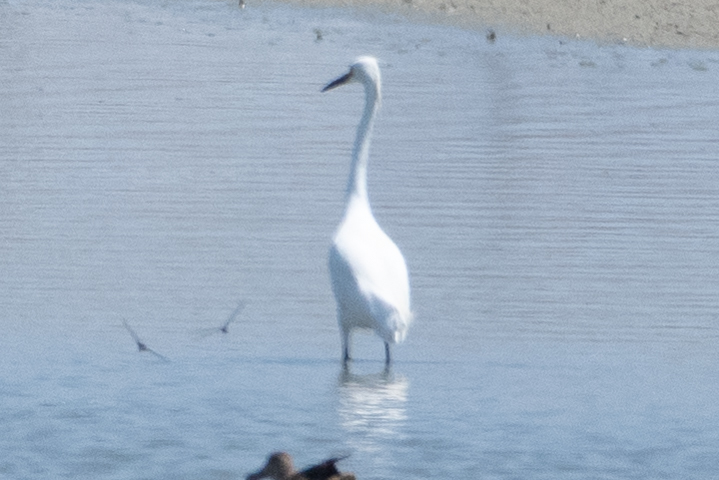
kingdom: Animalia
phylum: Chordata
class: Aves
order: Pelecaniformes
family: Ardeidae
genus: Ardea
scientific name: Ardea alba
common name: Great egret
